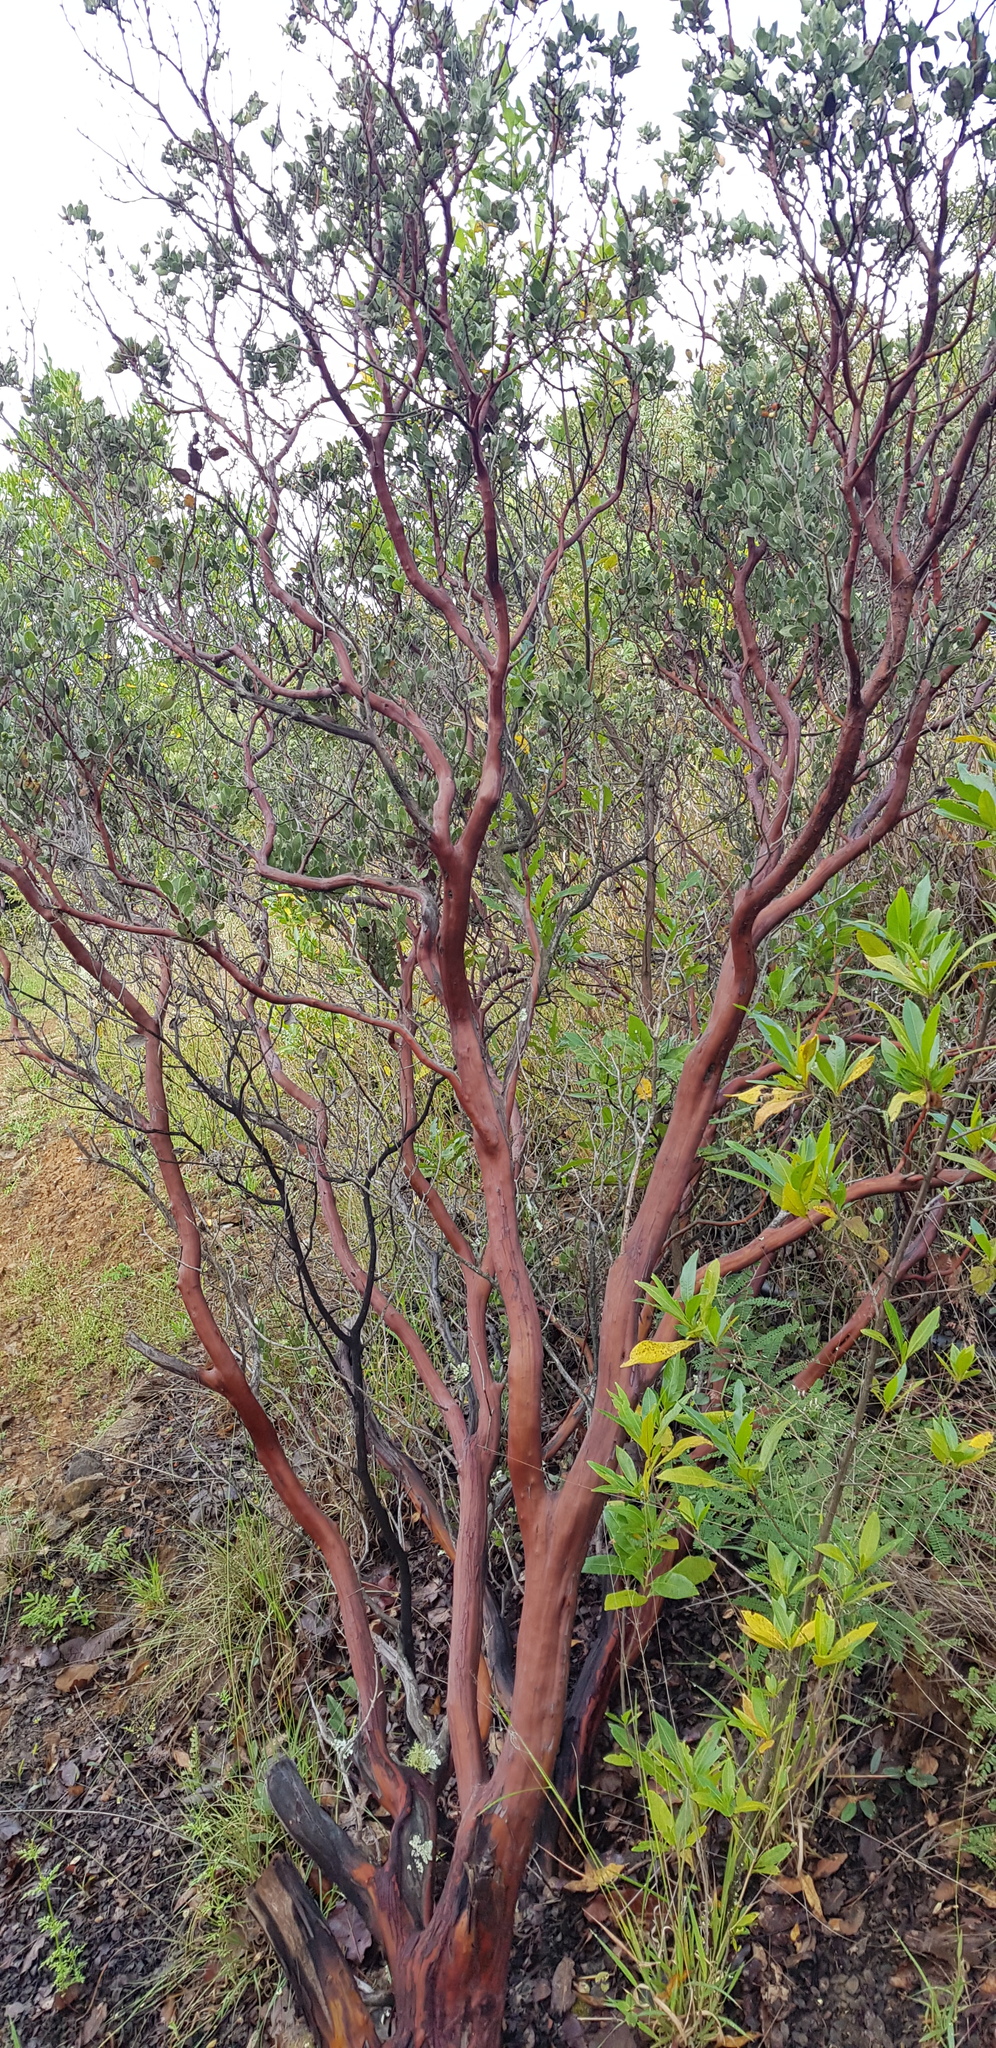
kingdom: Plantae
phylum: Tracheophyta
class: Magnoliopsida
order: Ericales
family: Ericaceae
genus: Arctostaphylos
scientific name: Arctostaphylos pungens
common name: Mexican manzanita
